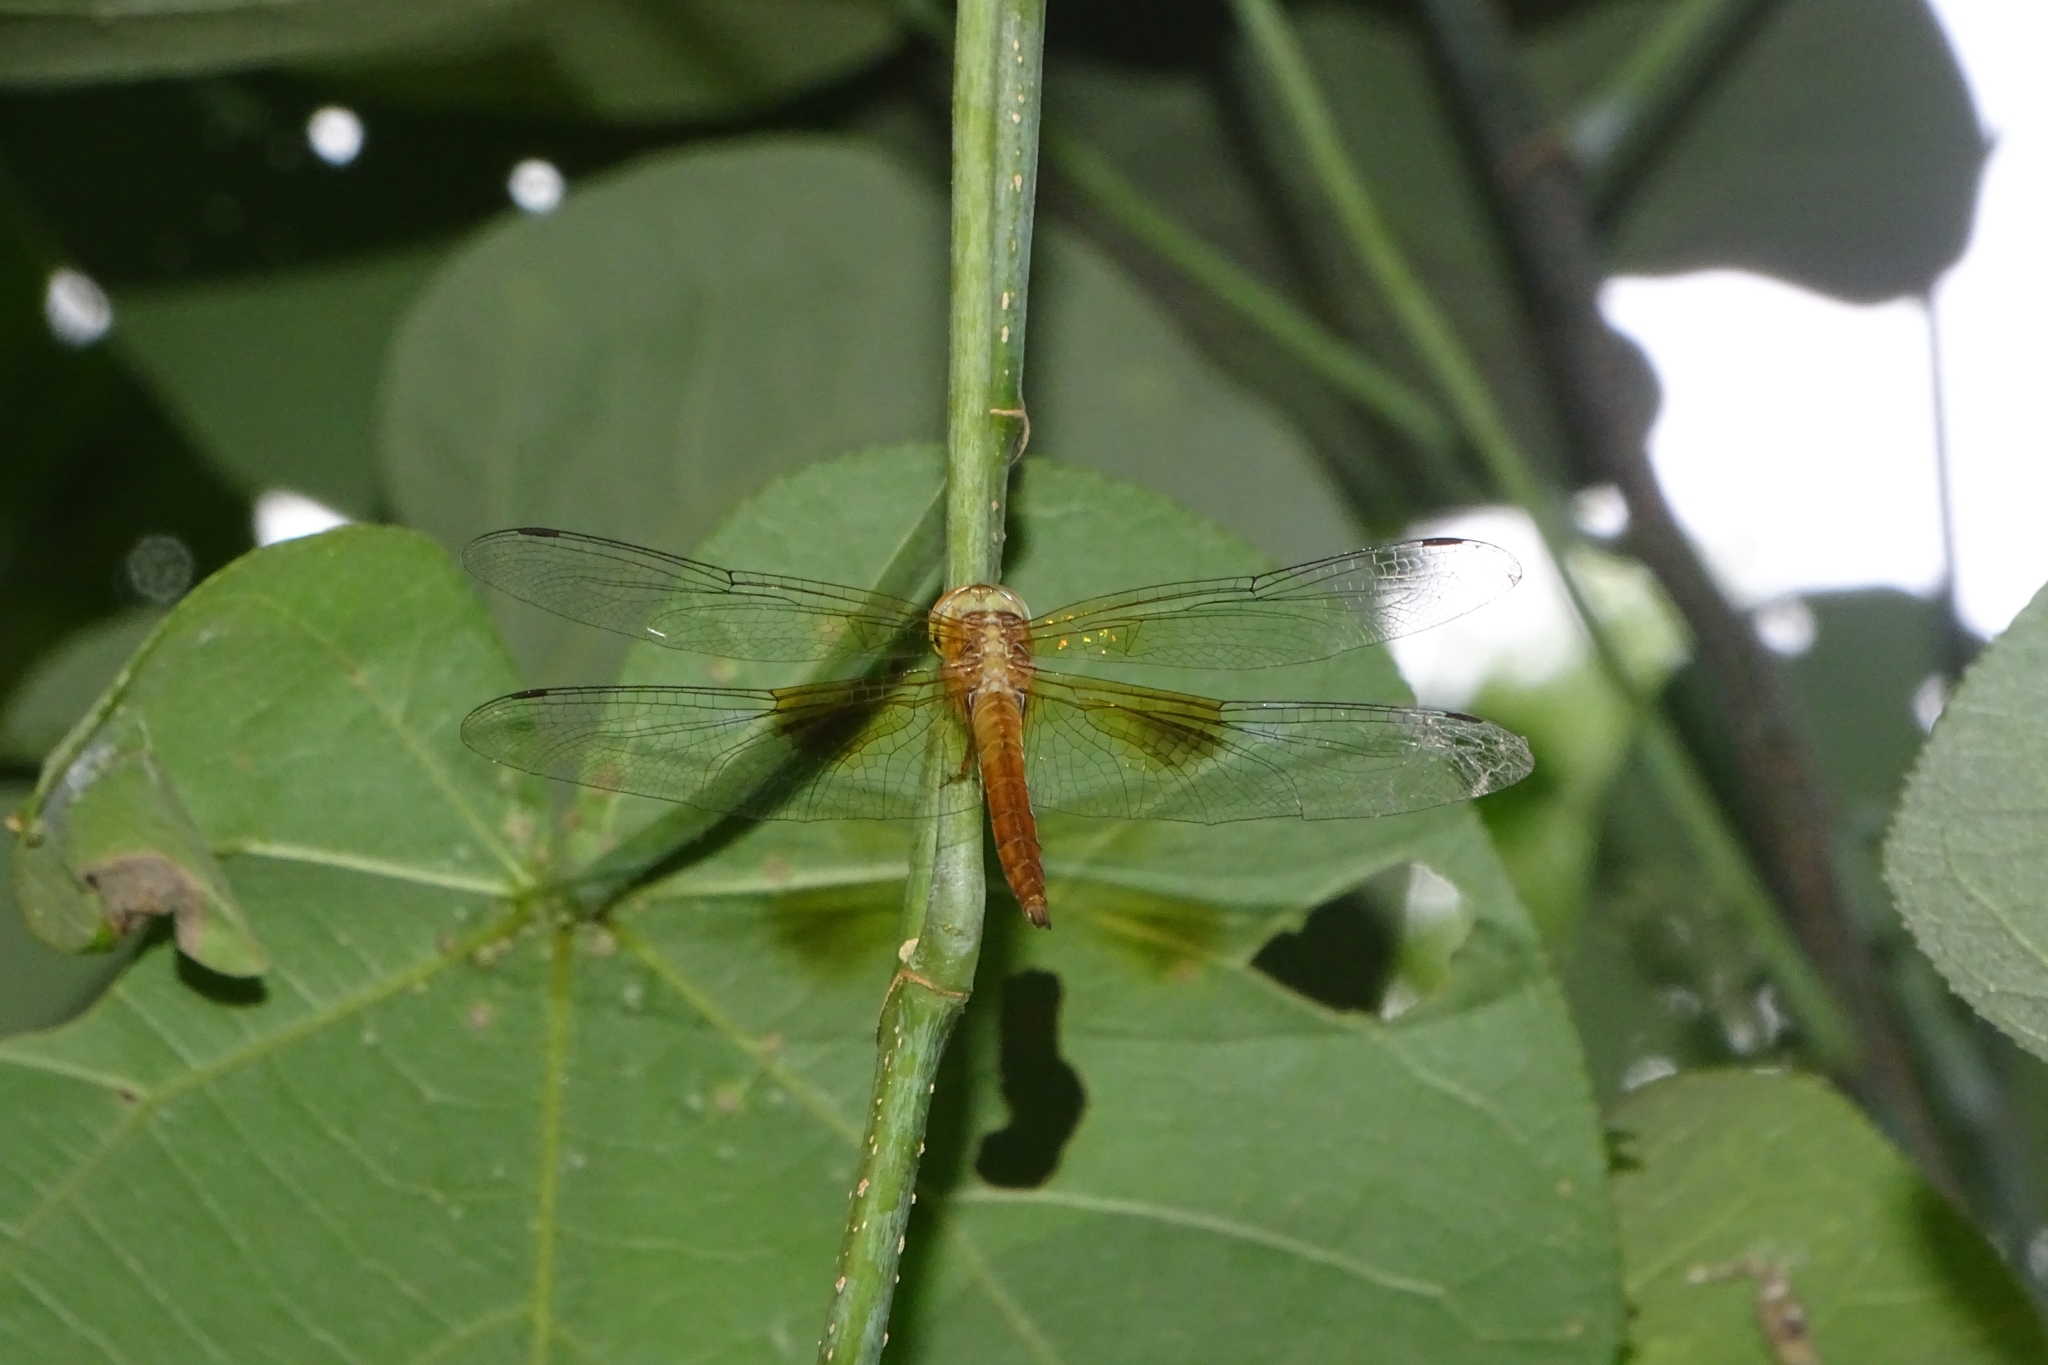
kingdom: Animalia
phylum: Arthropoda
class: Insecta
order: Odonata
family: Libellulidae
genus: Tholymis
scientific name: Tholymis tillarga
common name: Coral-tailed cloud wing
